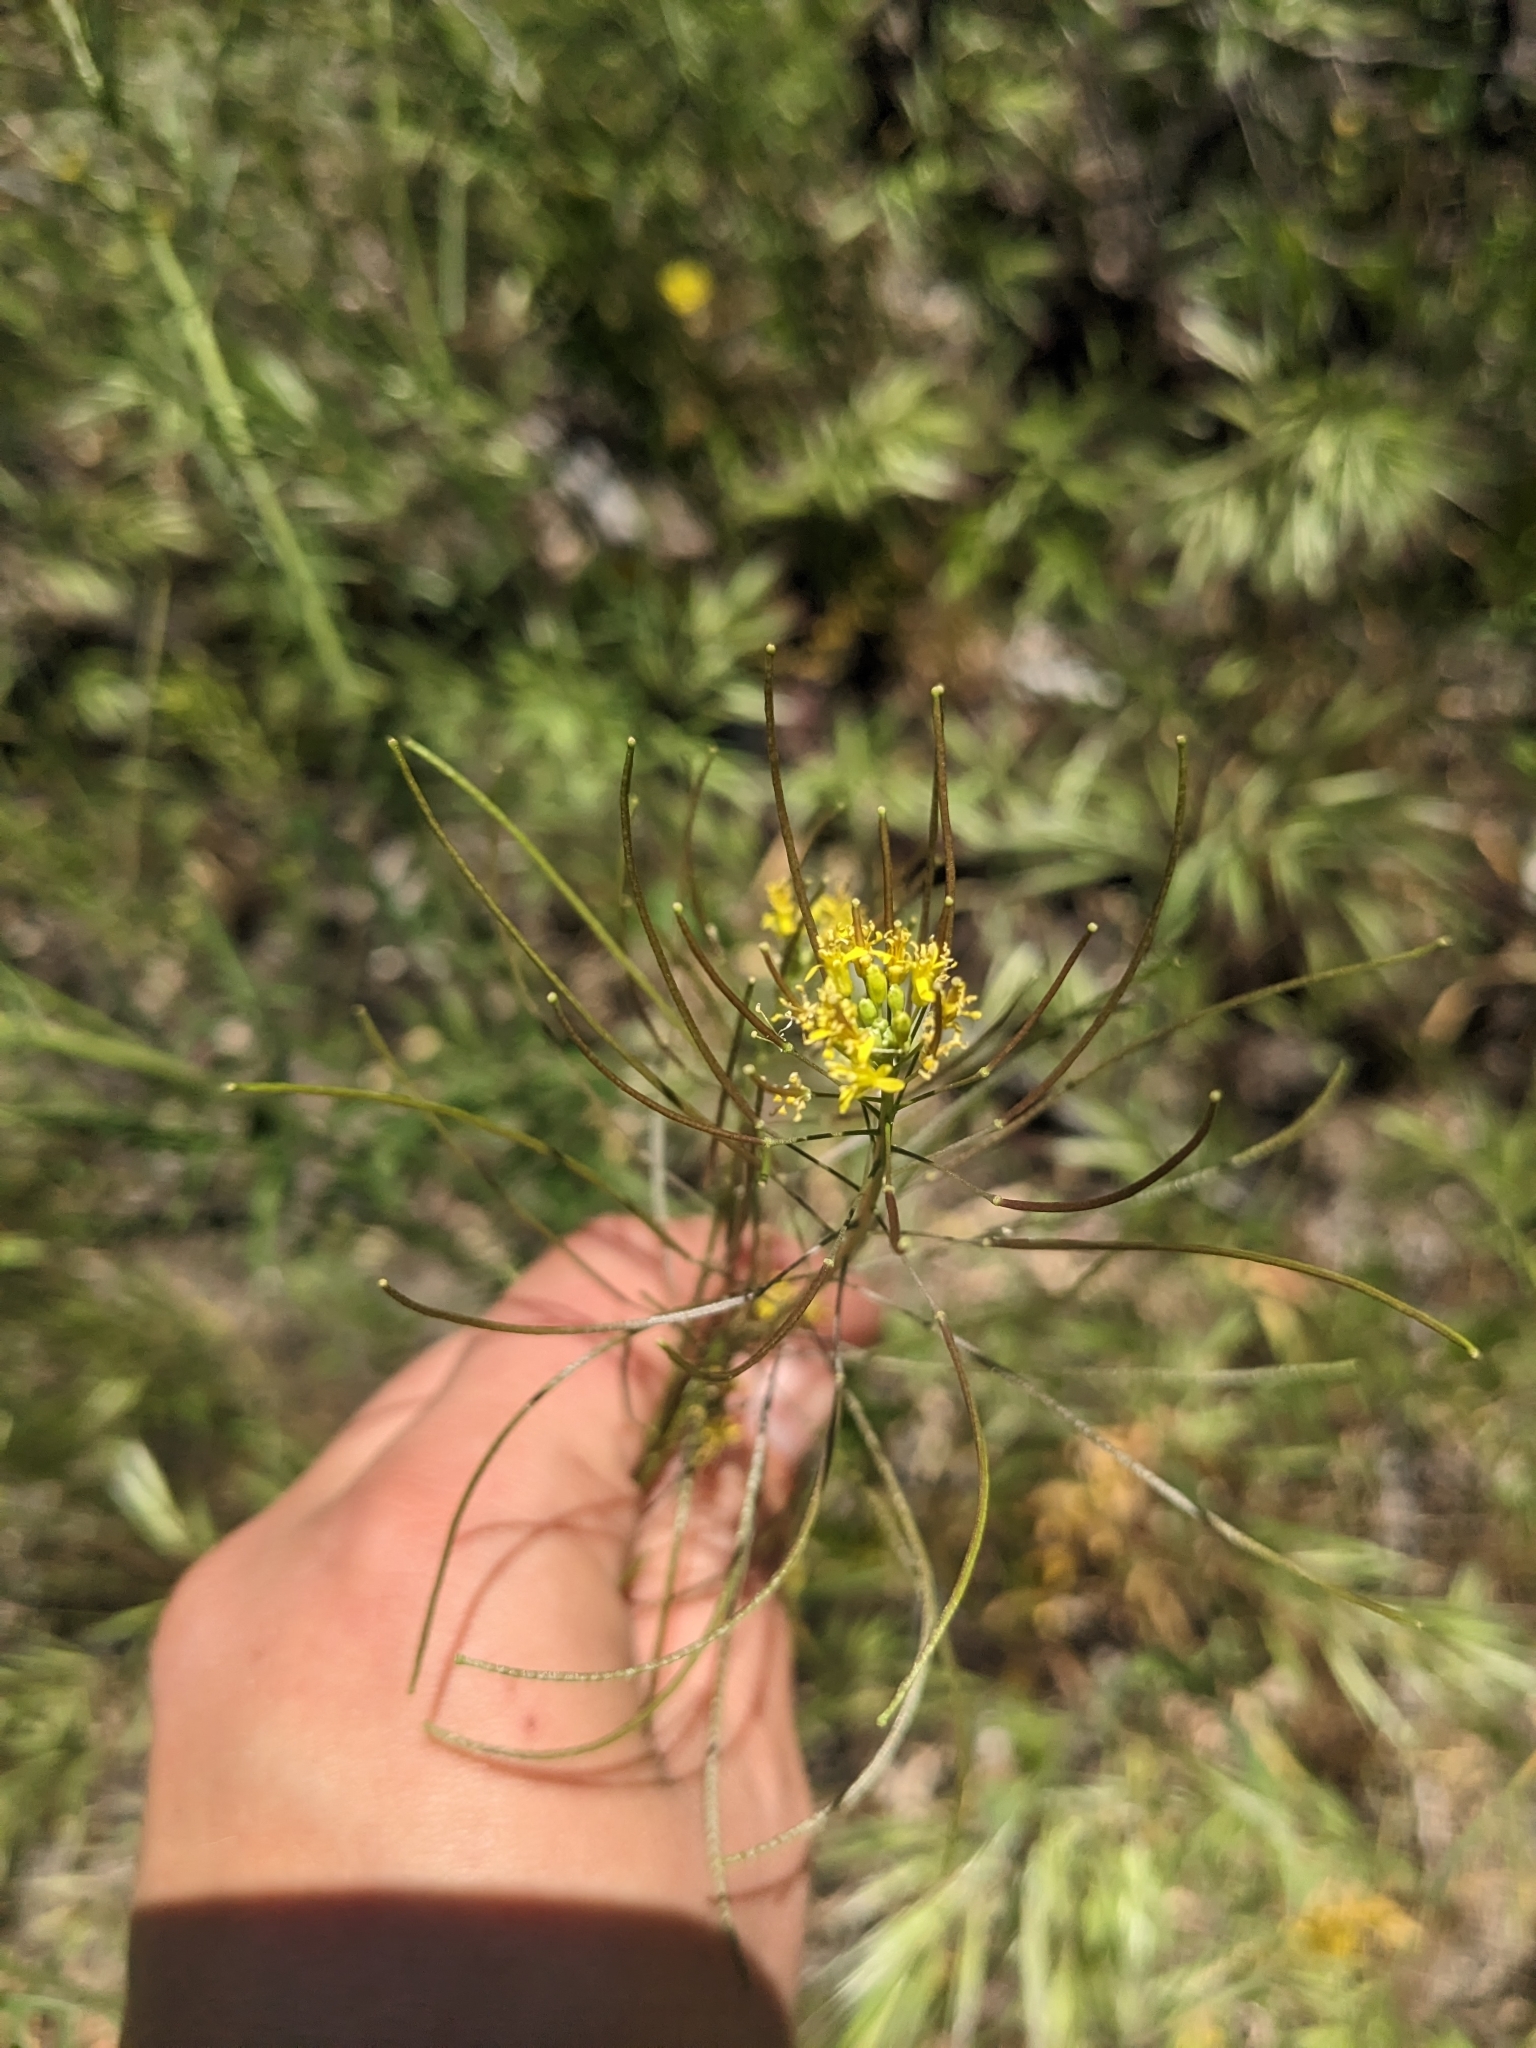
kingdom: Plantae
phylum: Tracheophyta
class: Magnoliopsida
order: Brassicales
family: Brassicaceae
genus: Sisymbrium
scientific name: Sisymbrium irio
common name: London rocket
